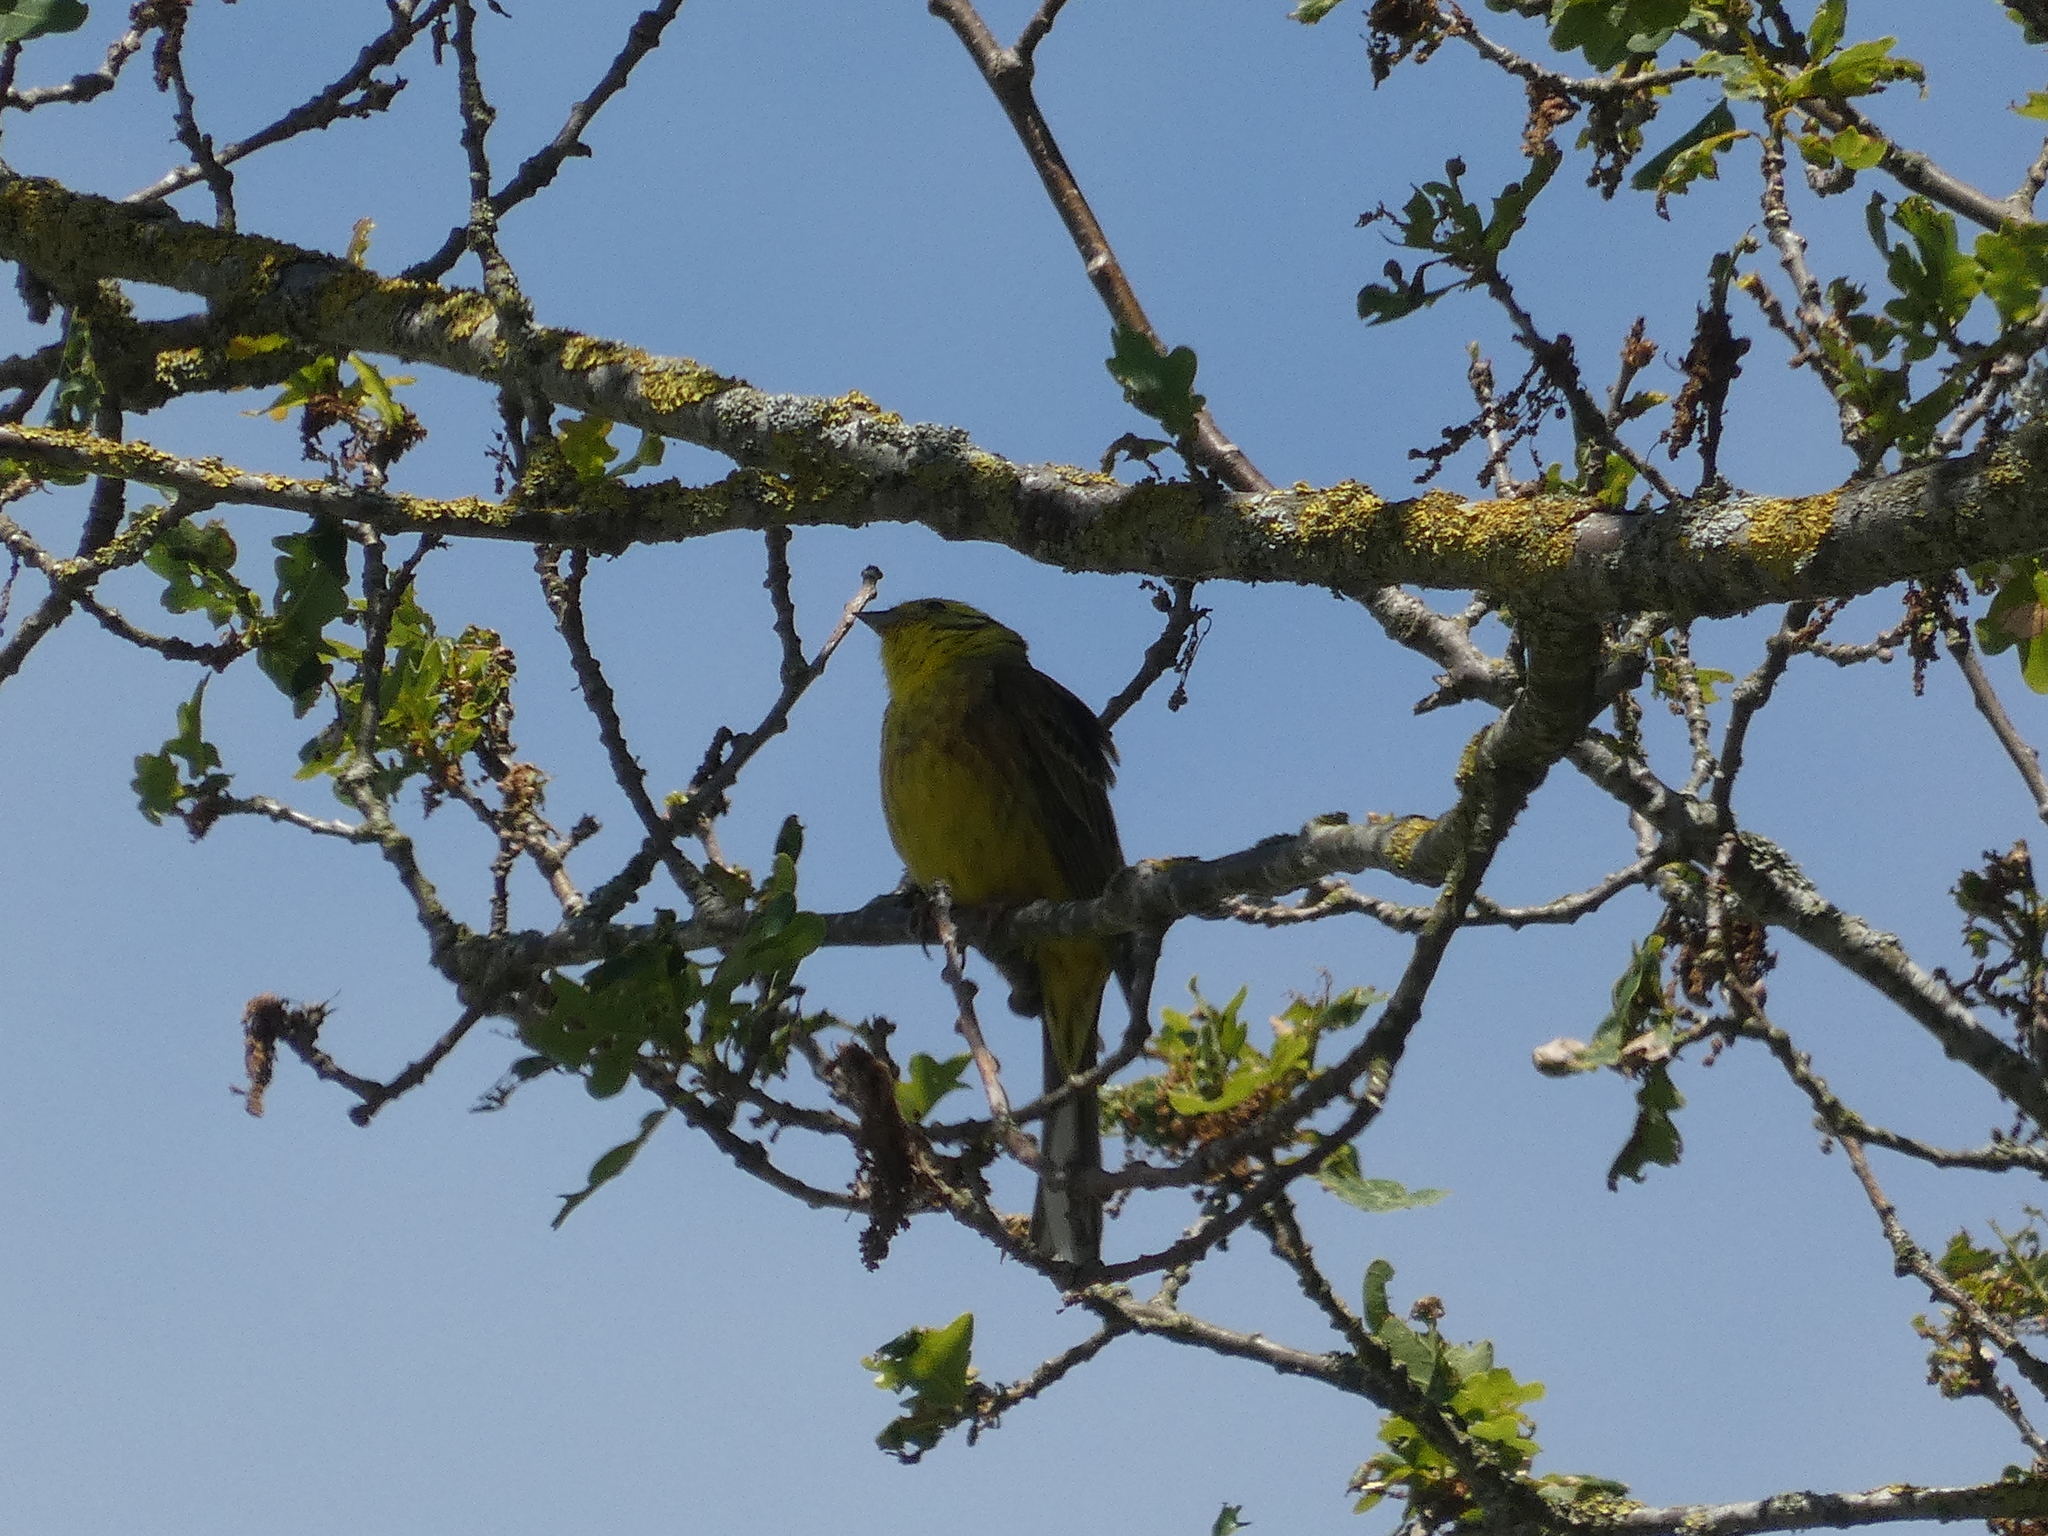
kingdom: Animalia
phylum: Chordata
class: Aves
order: Passeriformes
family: Emberizidae
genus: Emberiza
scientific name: Emberiza citrinella
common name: Yellowhammer
